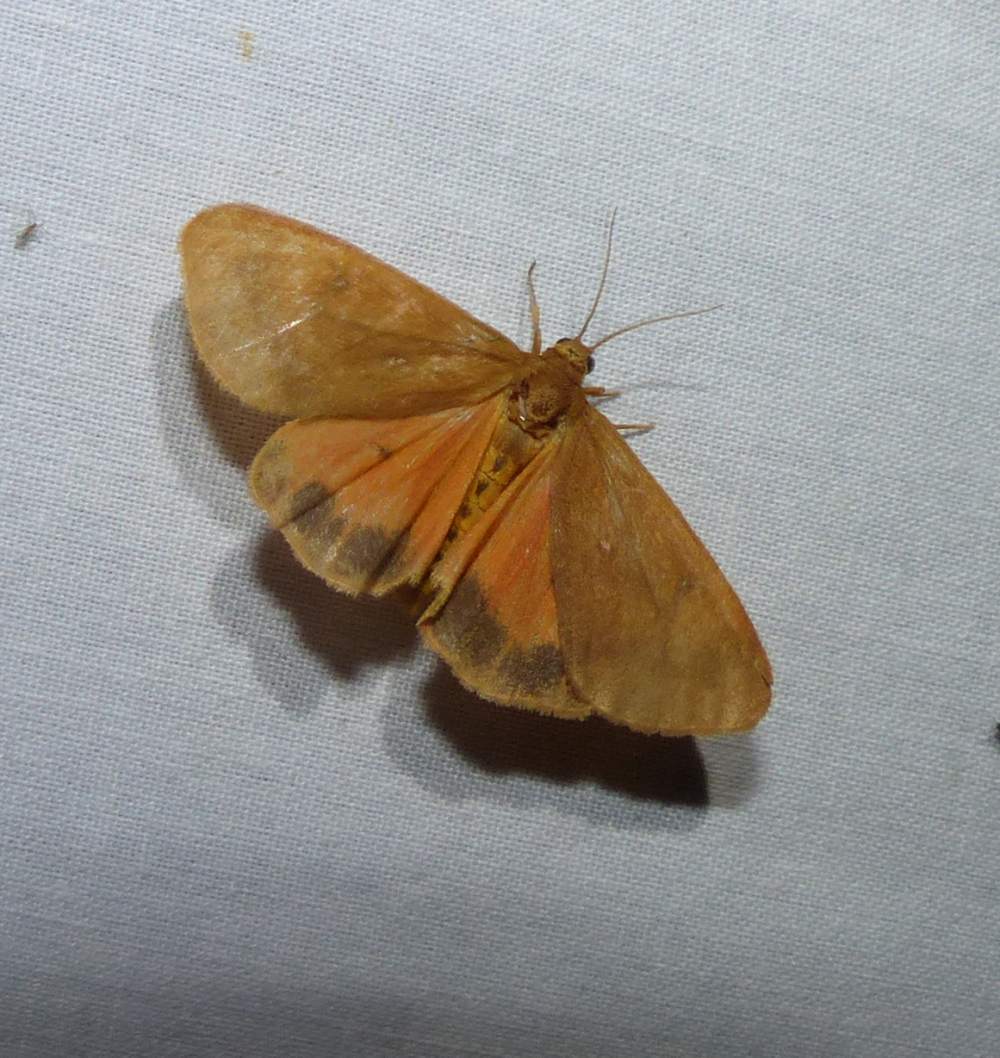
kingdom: Animalia
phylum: Arthropoda
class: Insecta
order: Lepidoptera
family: Erebidae
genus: Virbia
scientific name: Virbia ferruginosa
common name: Rusty virbia moth
